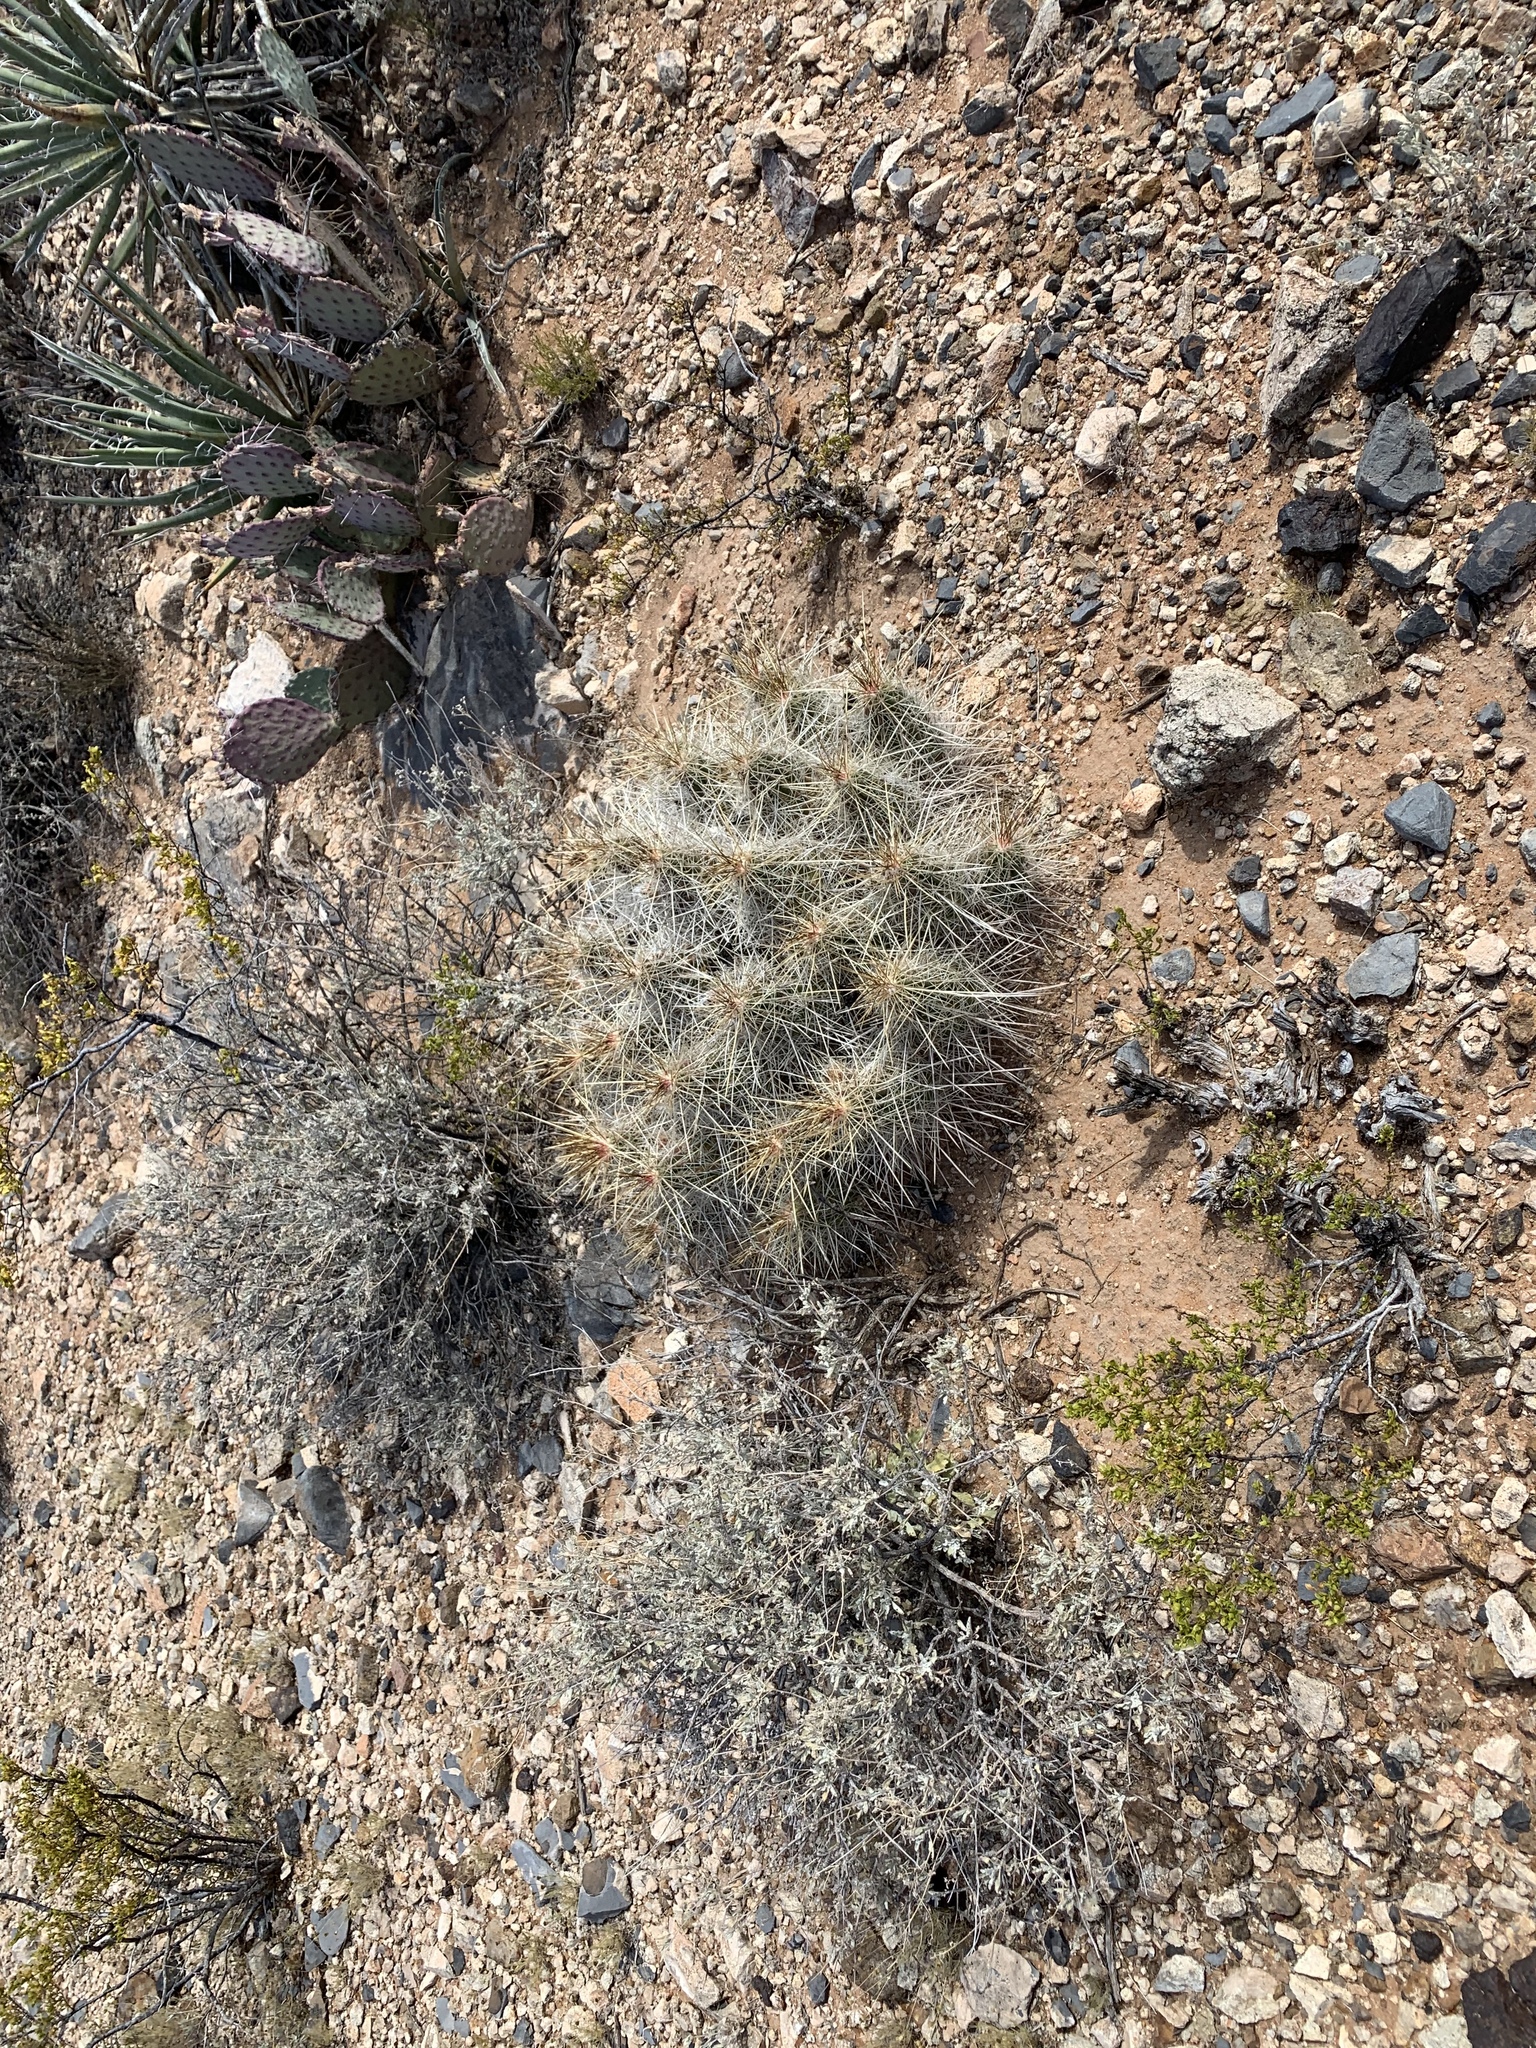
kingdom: Plantae
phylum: Tracheophyta
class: Magnoliopsida
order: Caryophyllales
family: Cactaceae
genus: Echinocereus
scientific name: Echinocereus stramineus
